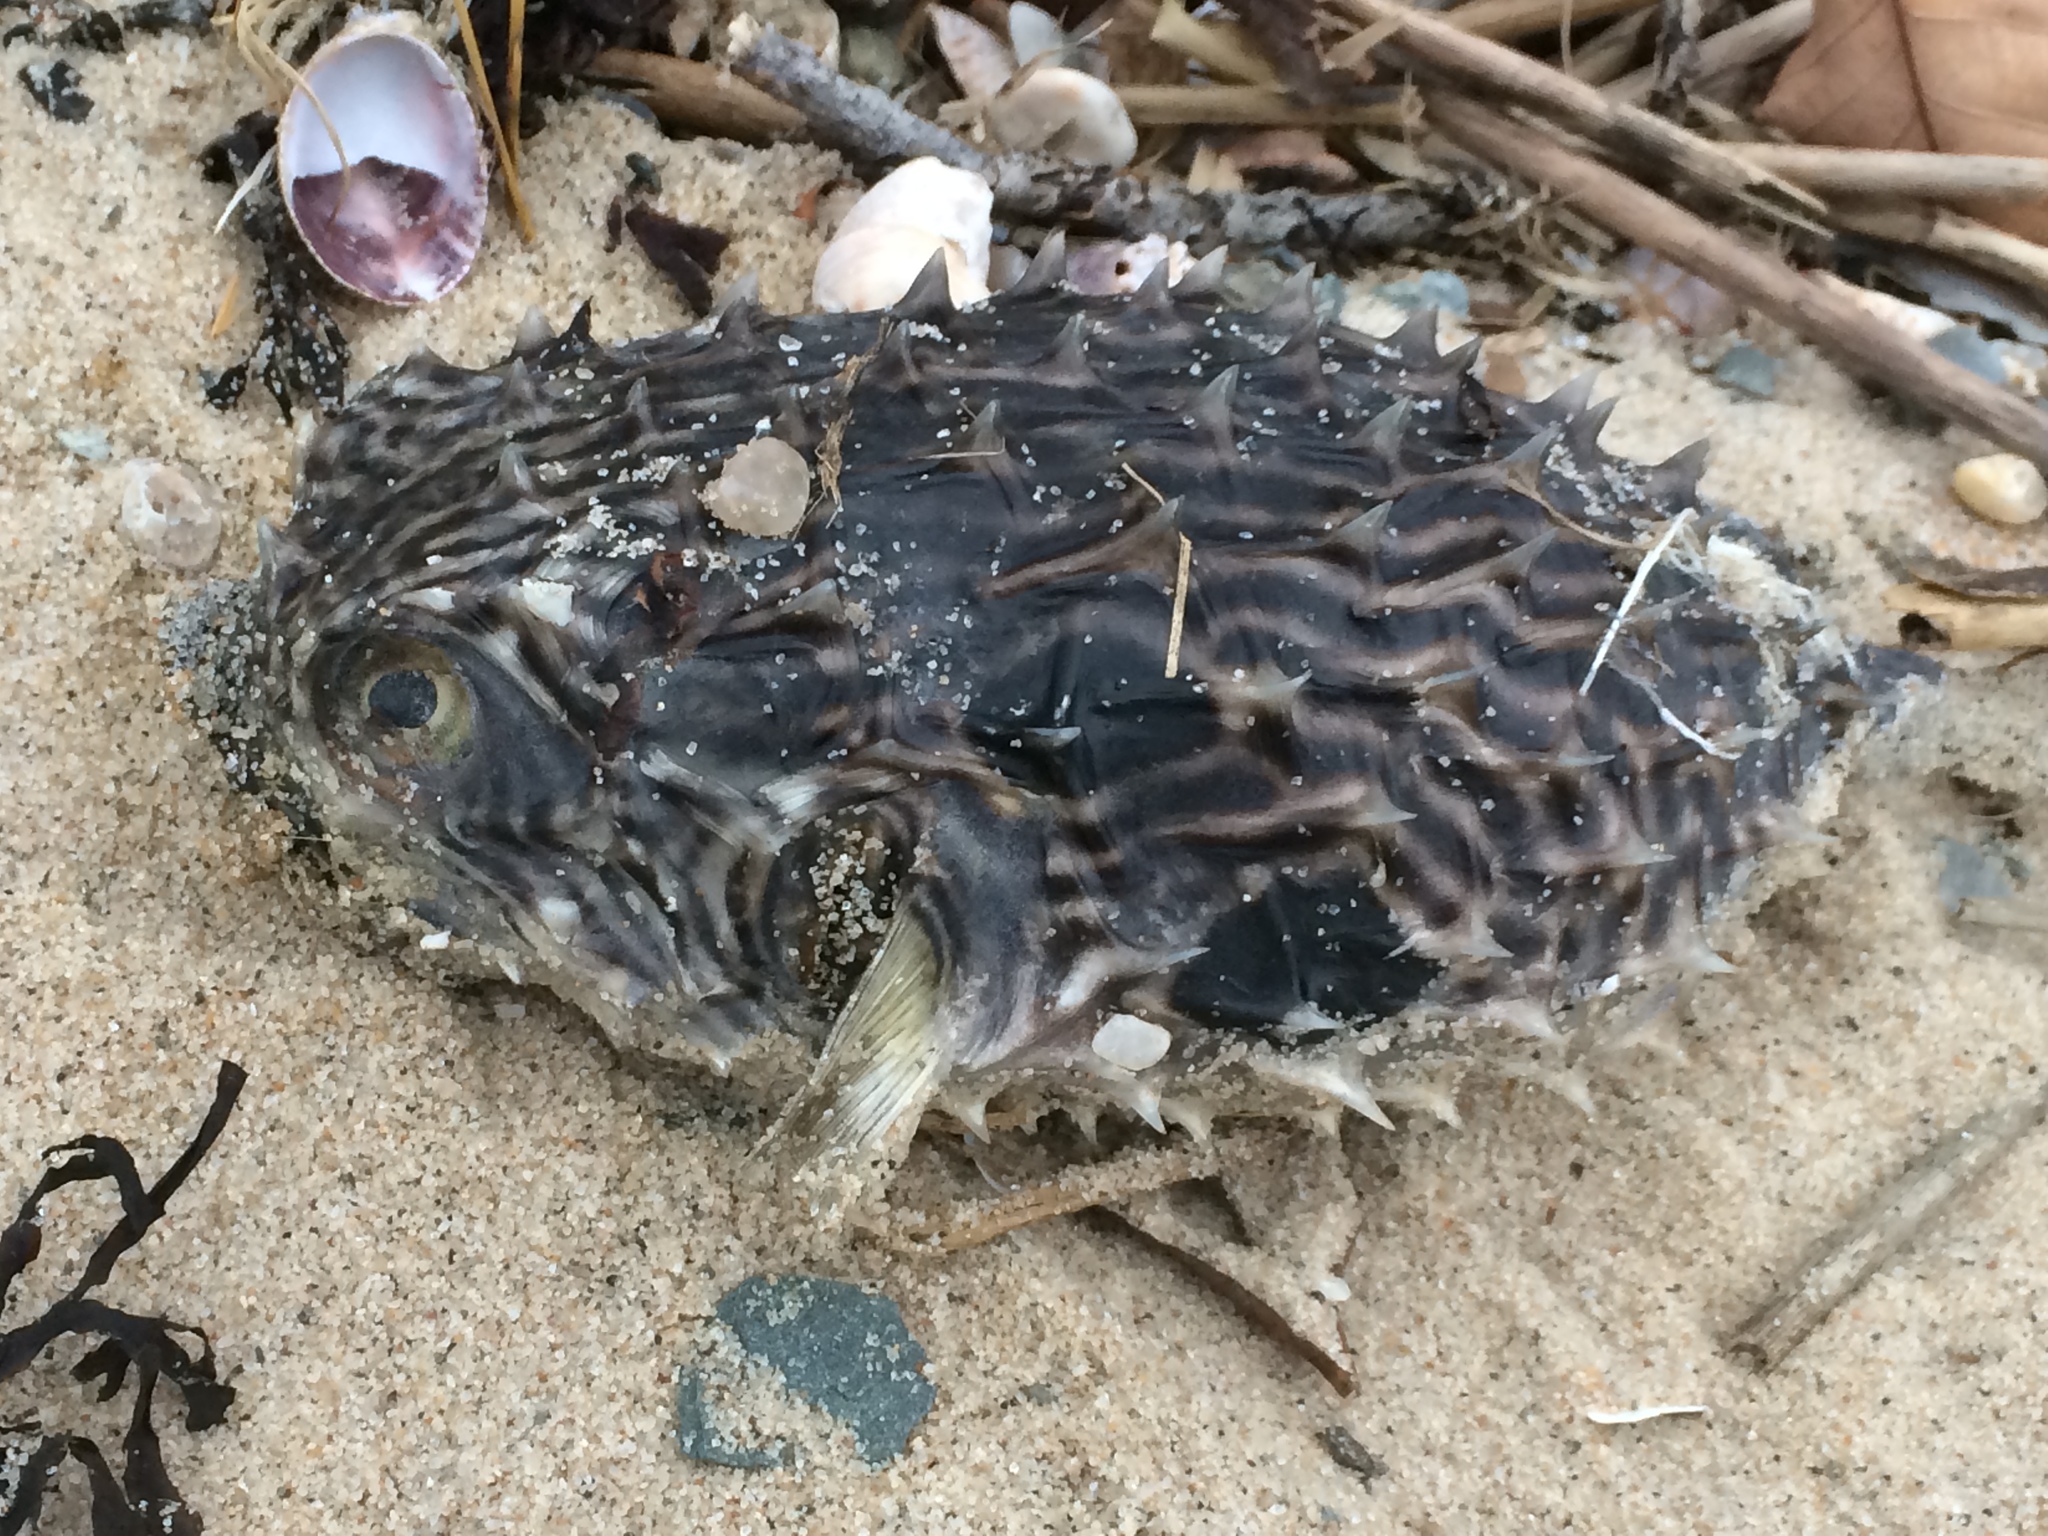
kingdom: Animalia
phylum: Chordata
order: Tetraodontiformes
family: Diodontidae
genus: Chilomycterus
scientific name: Chilomycterus schoepfii
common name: Striped burrfish
